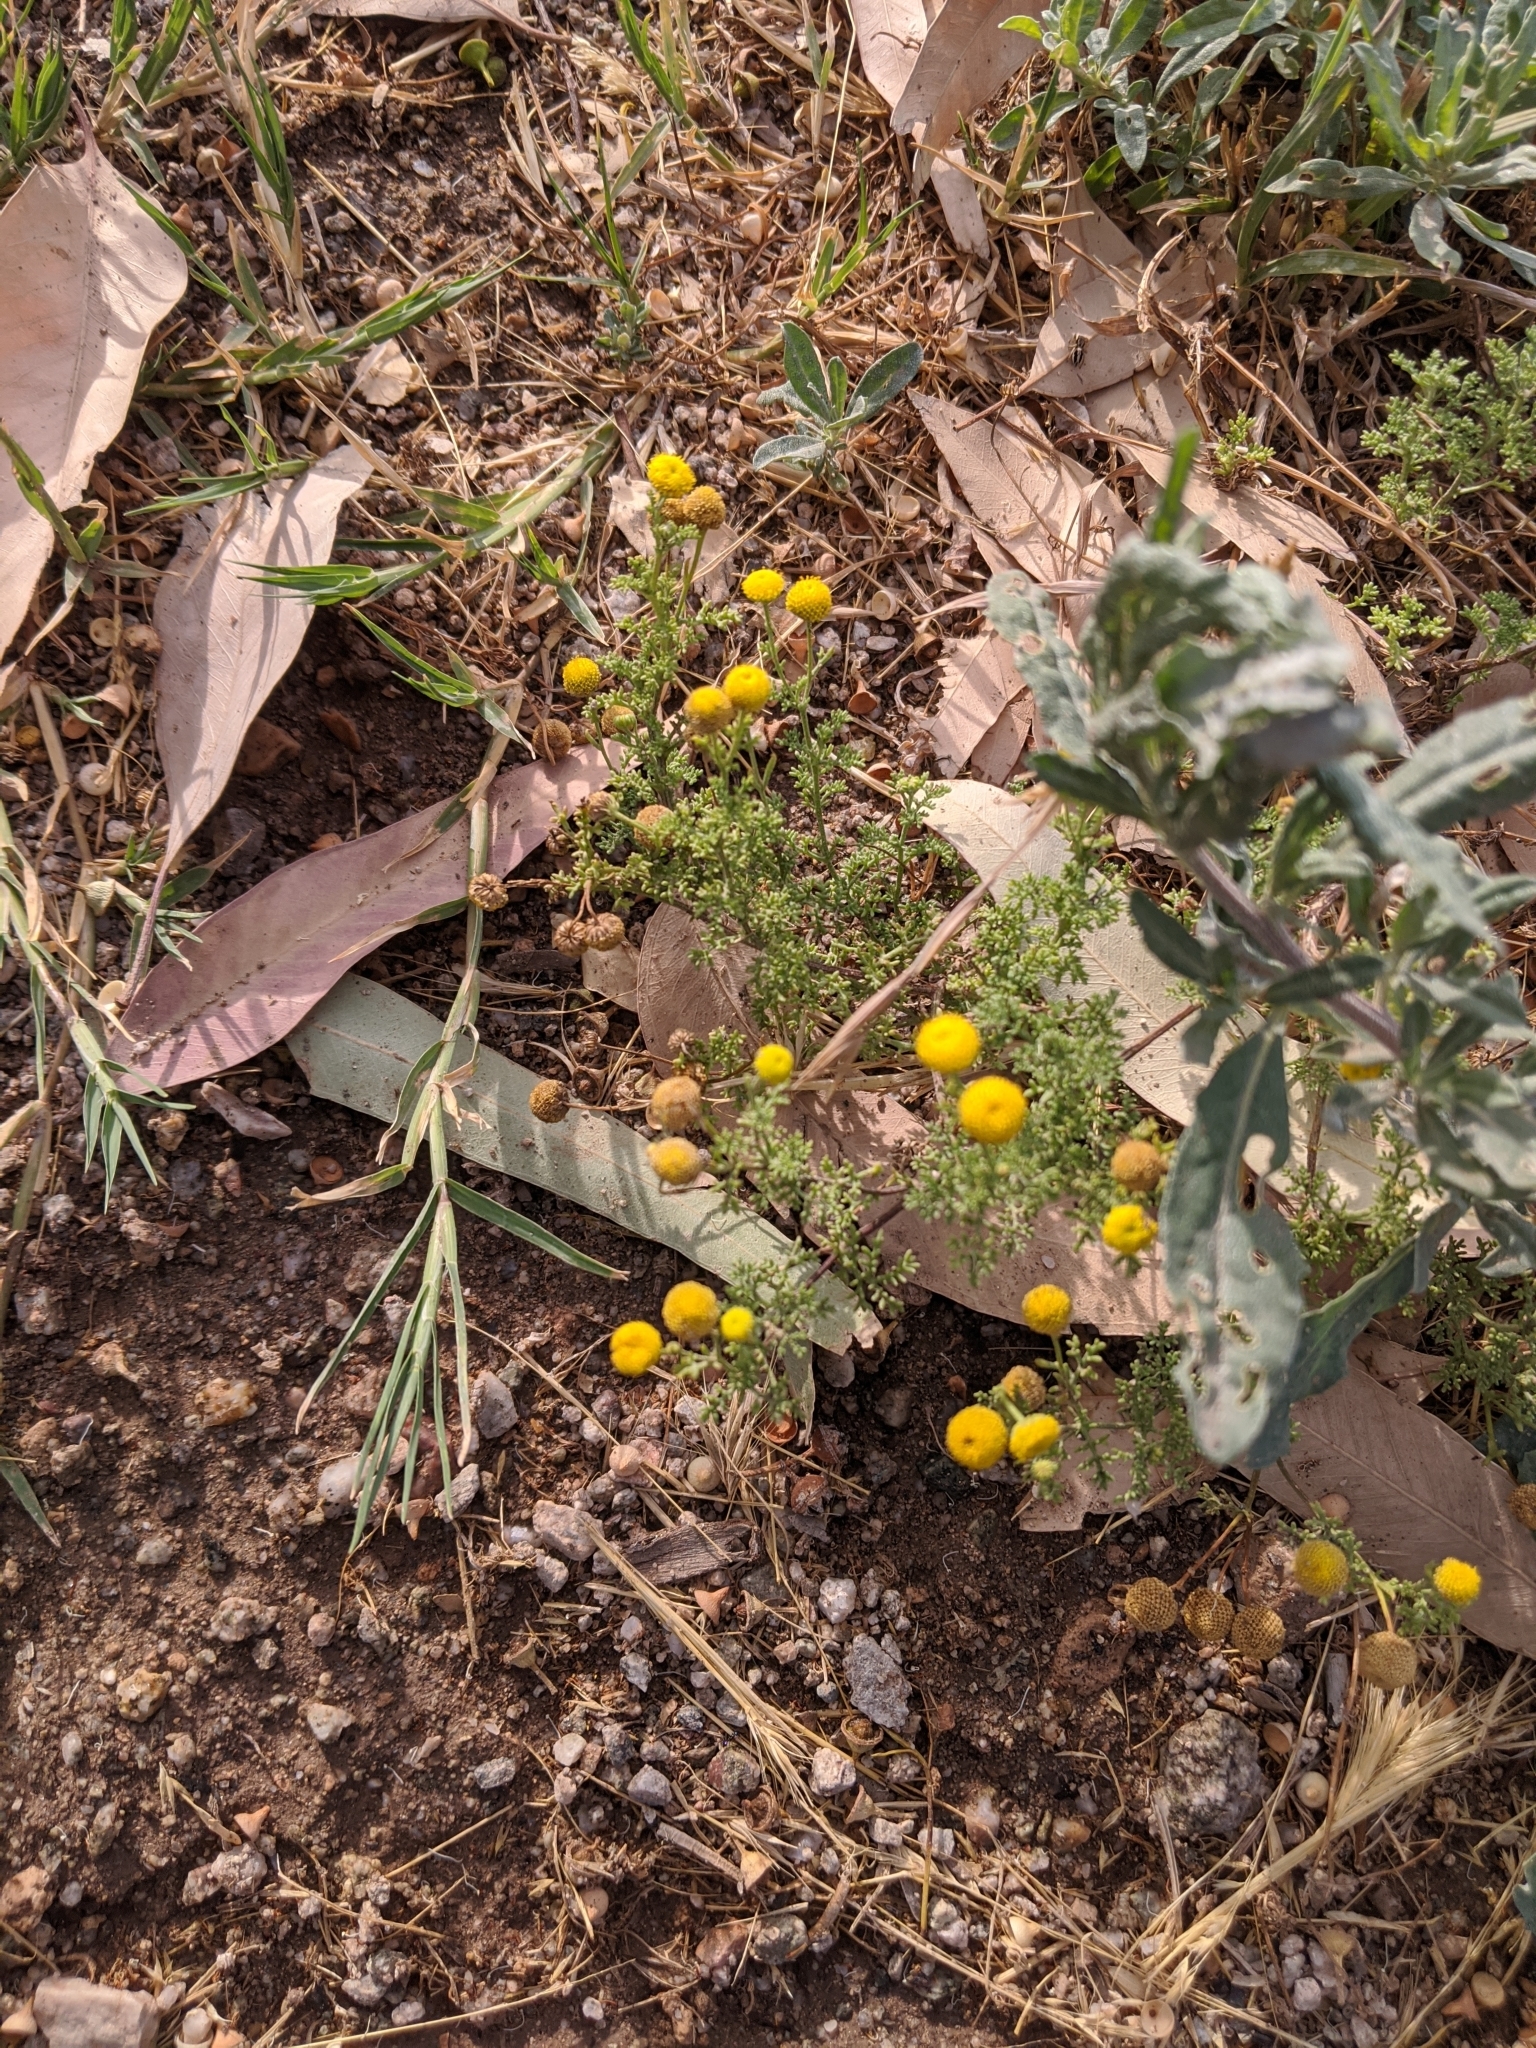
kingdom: Plantae
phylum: Tracheophyta
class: Magnoliopsida
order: Asterales
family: Asteraceae
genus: Oncosiphon
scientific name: Oncosiphon pilulifer
